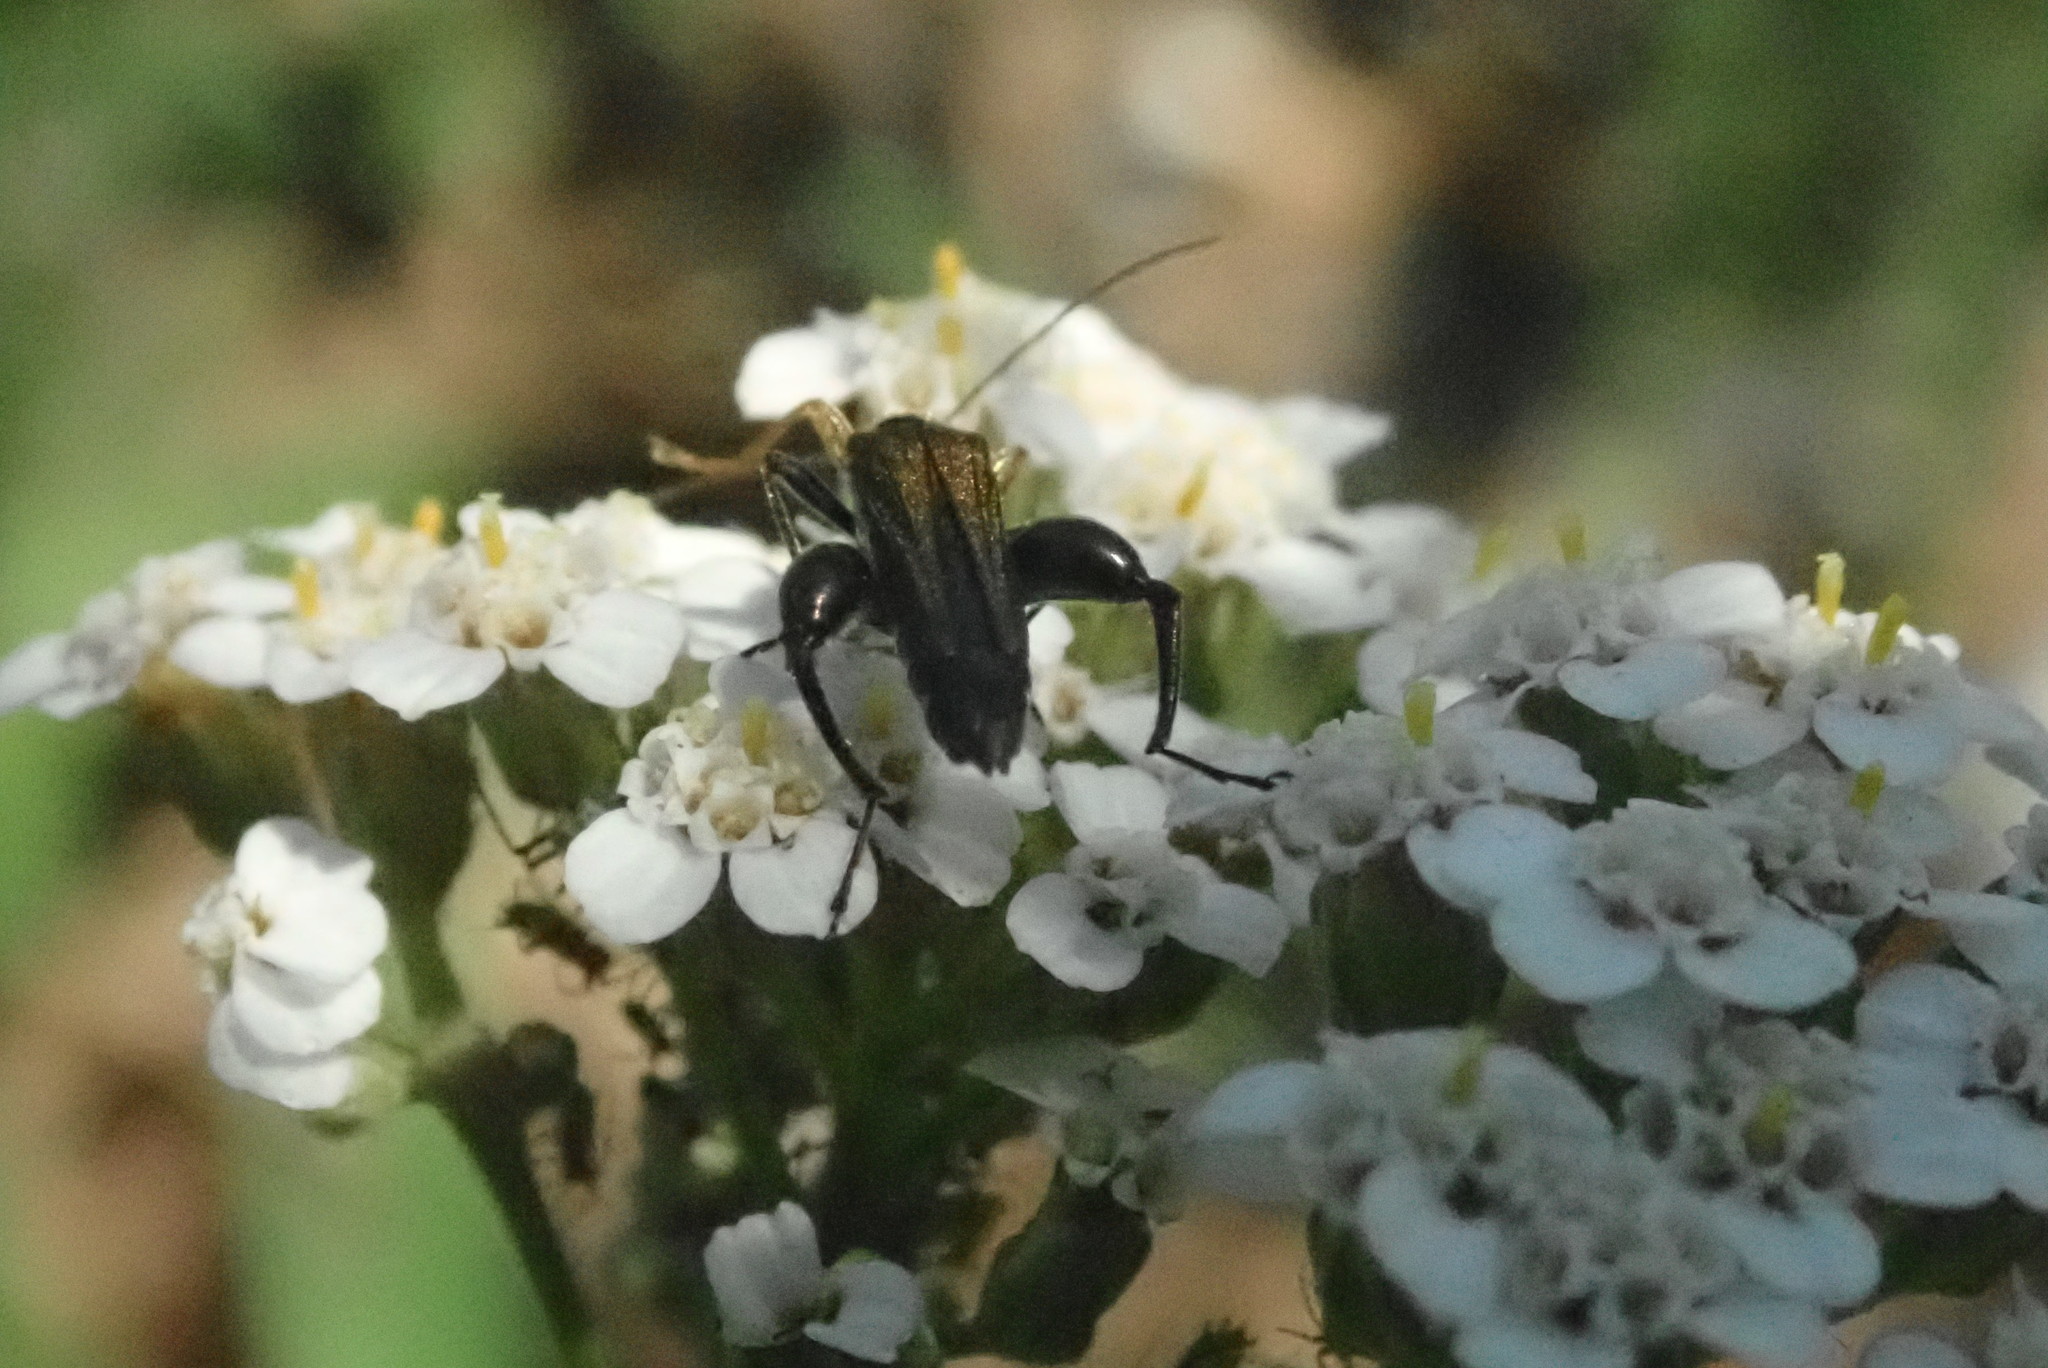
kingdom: Animalia
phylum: Arthropoda
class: Insecta
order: Coleoptera
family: Oedemeridae
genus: Oedemera
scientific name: Oedemera flavipes
